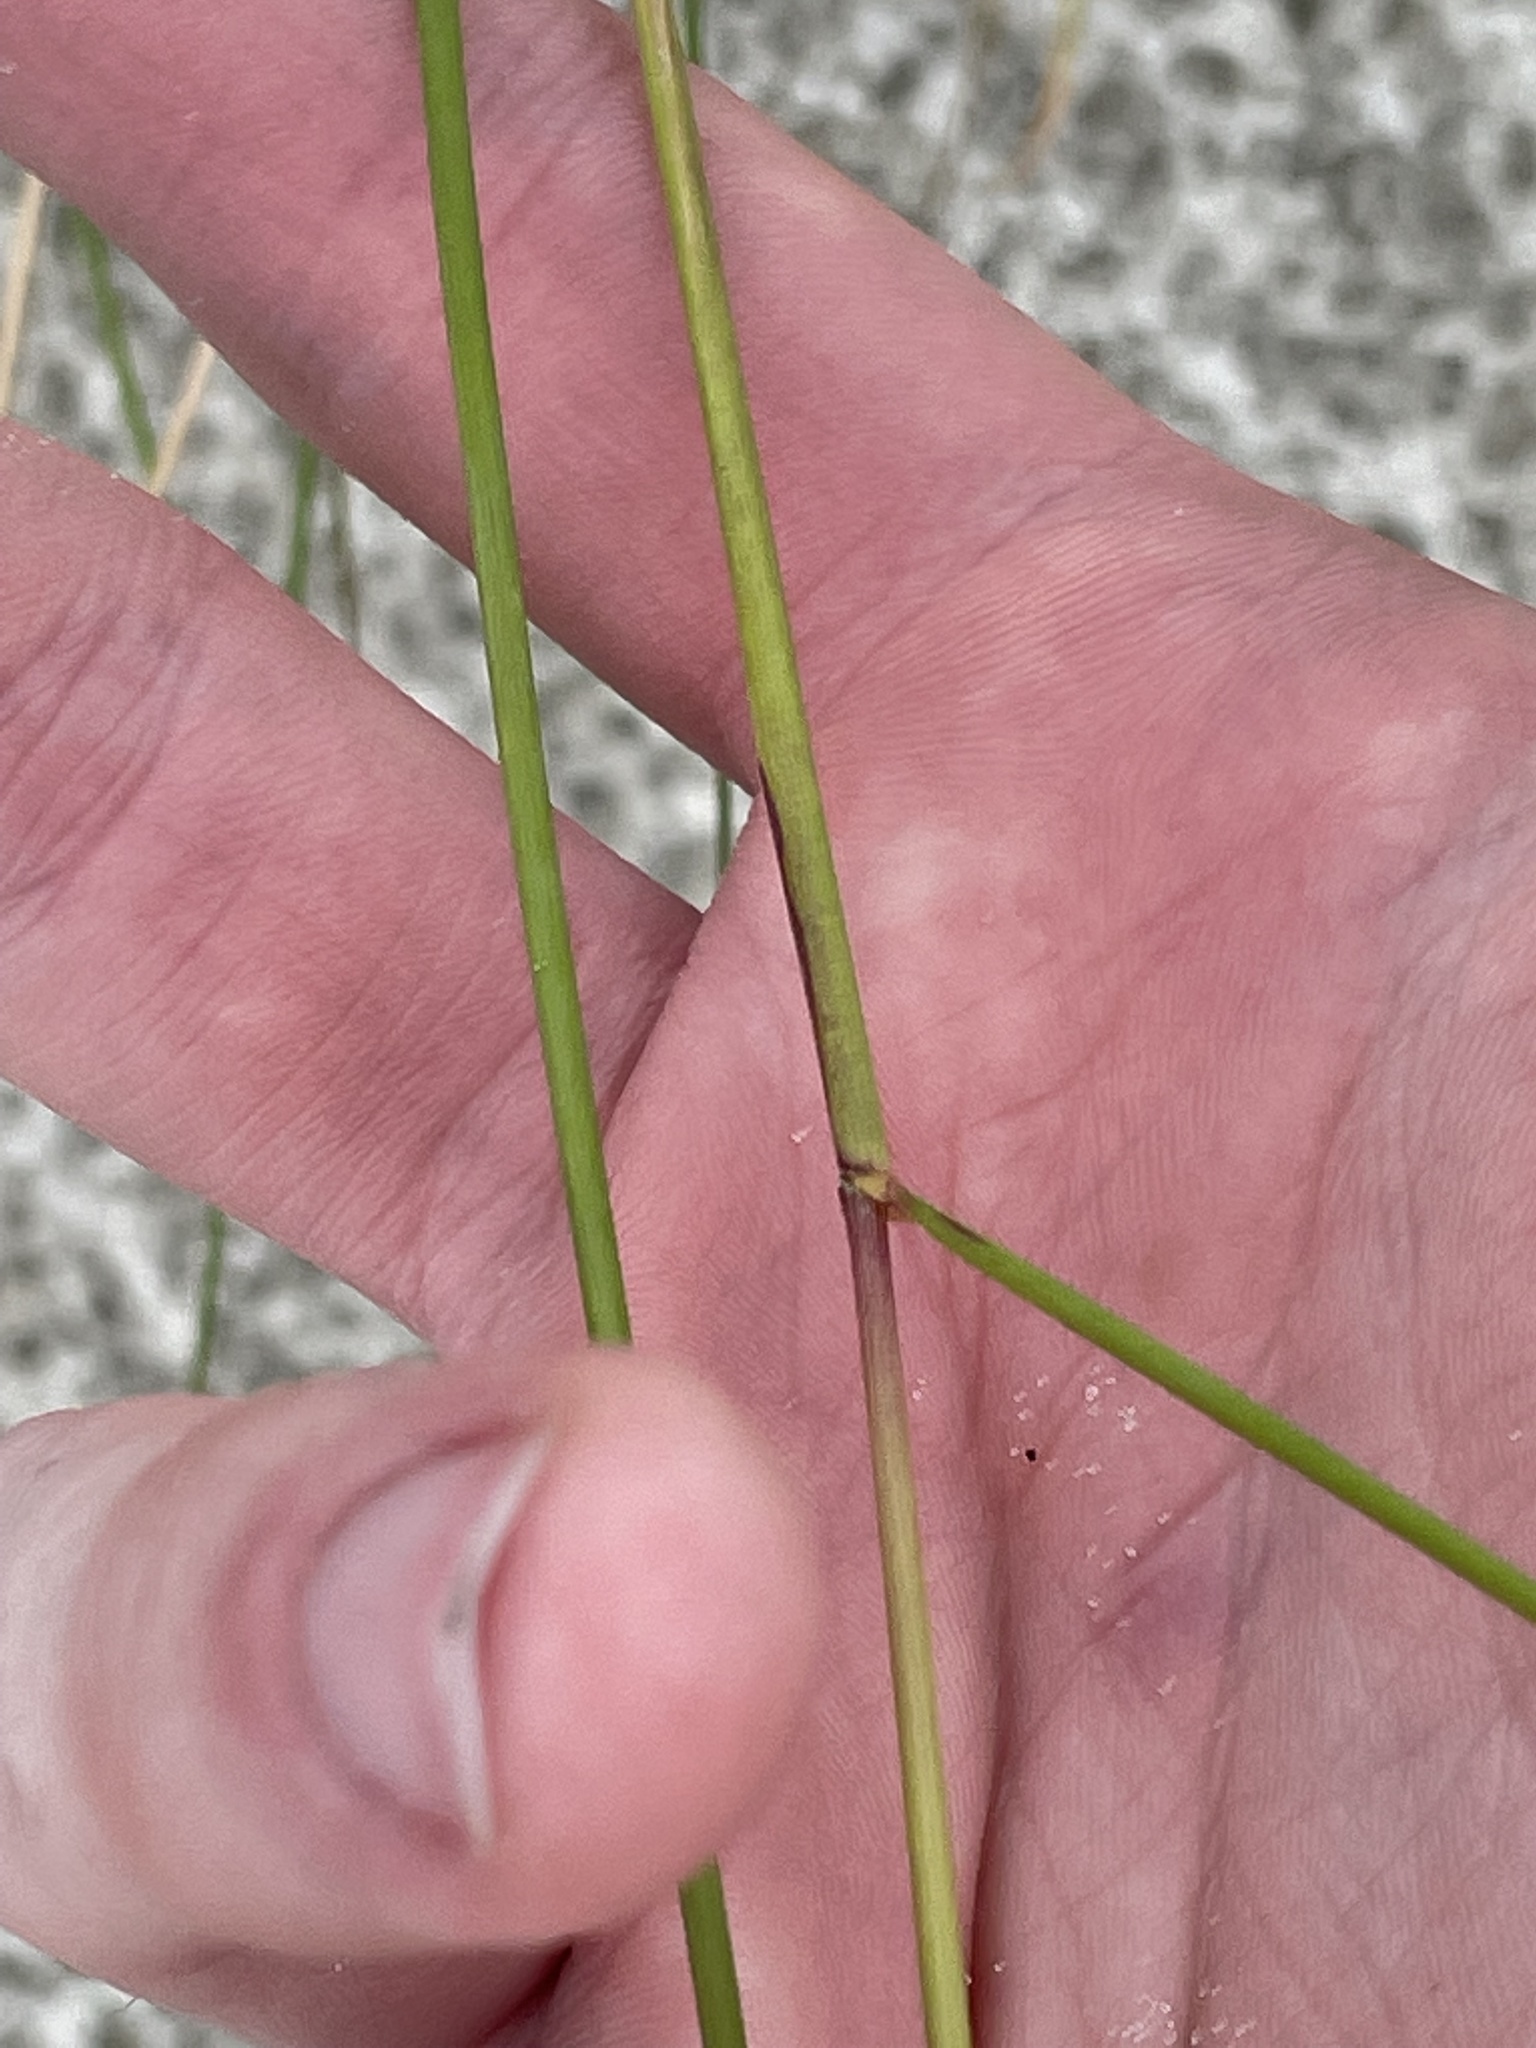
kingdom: Plantae
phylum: Tracheophyta
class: Liliopsida
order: Poales
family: Poaceae
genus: Sporobolus
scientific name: Sporobolus pumilus
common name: Highwater grass
